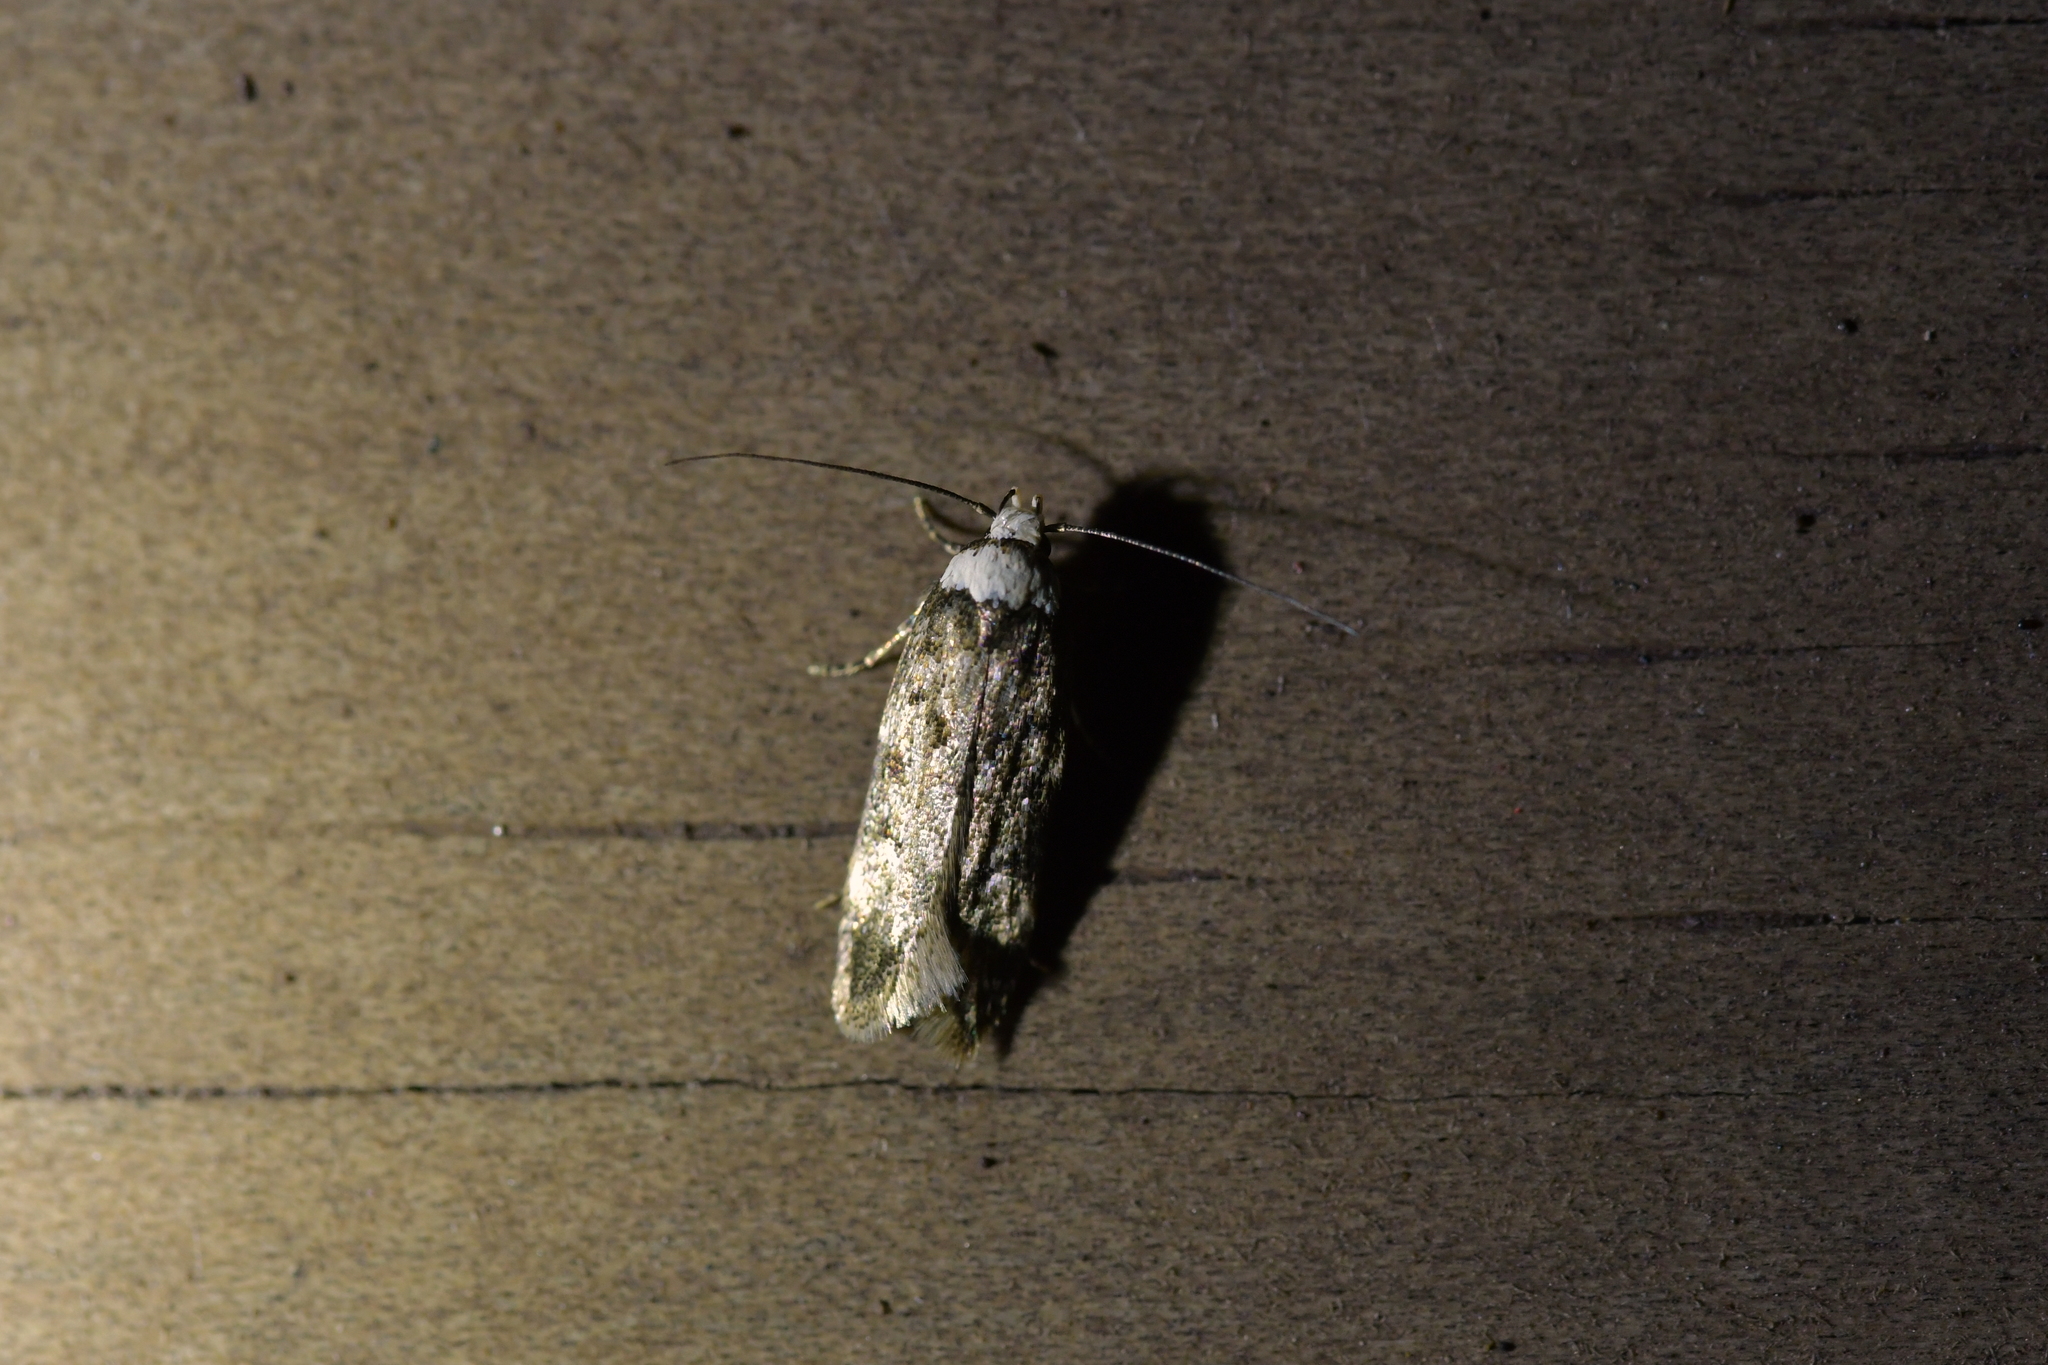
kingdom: Animalia
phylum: Arthropoda
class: Insecta
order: Lepidoptera
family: Oecophoridae
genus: Endrosis
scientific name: Endrosis sarcitrella
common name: White-shouldered house moth
